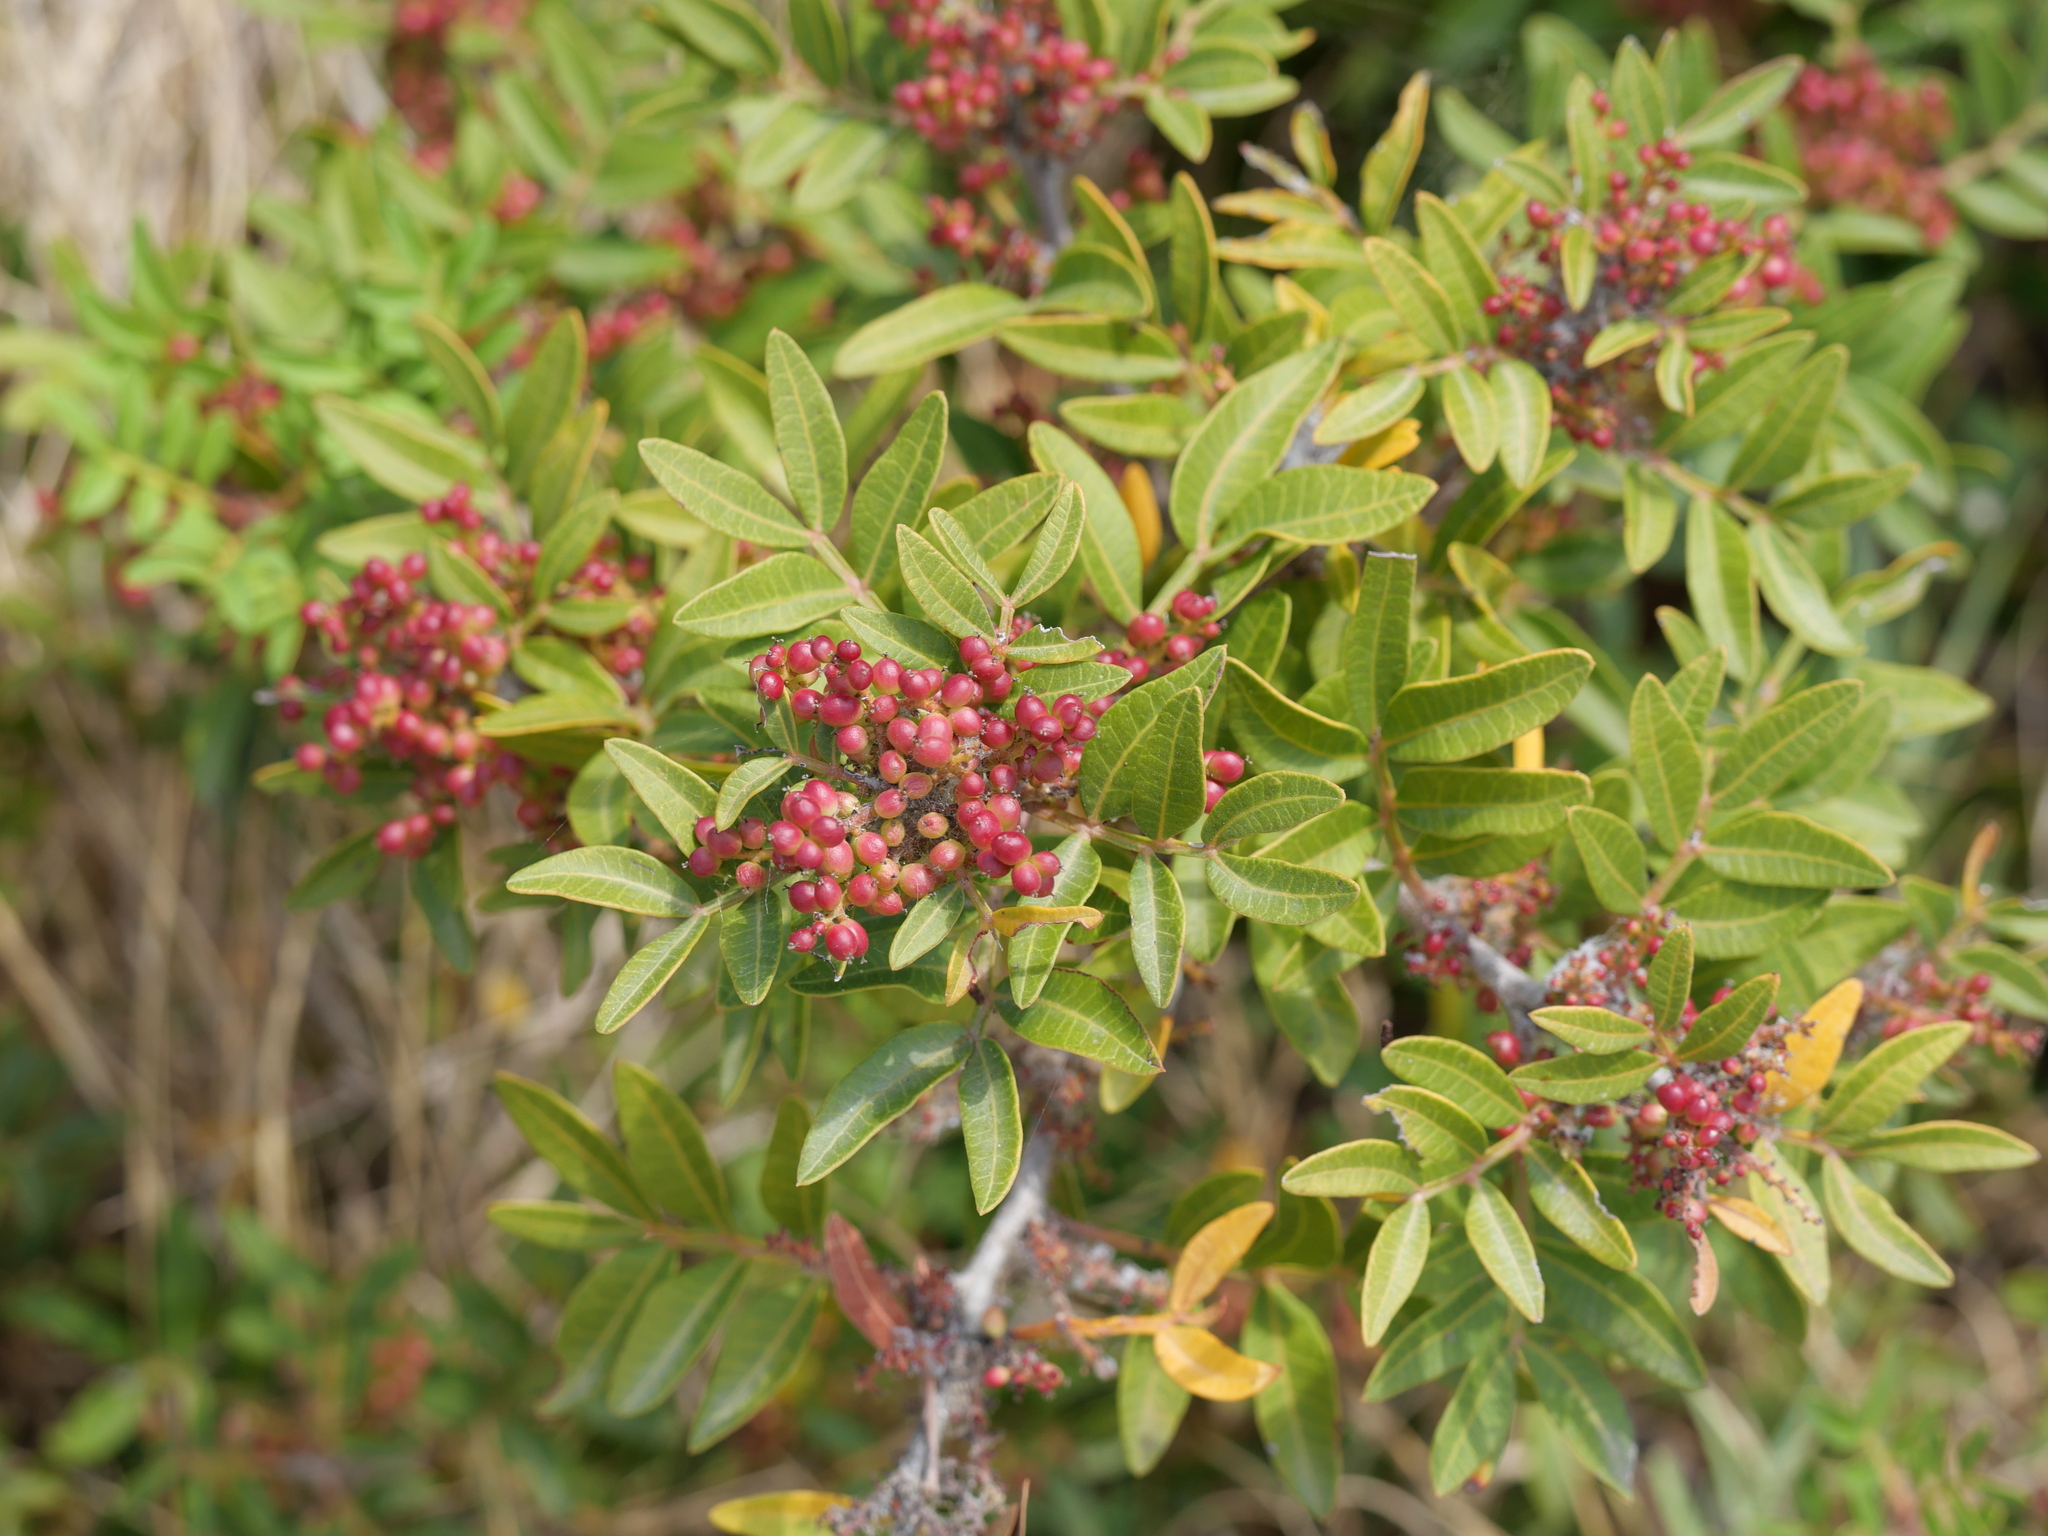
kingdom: Plantae
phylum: Tracheophyta
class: Magnoliopsida
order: Sapindales
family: Anacardiaceae
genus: Pistacia
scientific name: Pistacia lentiscus
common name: Lentisk
